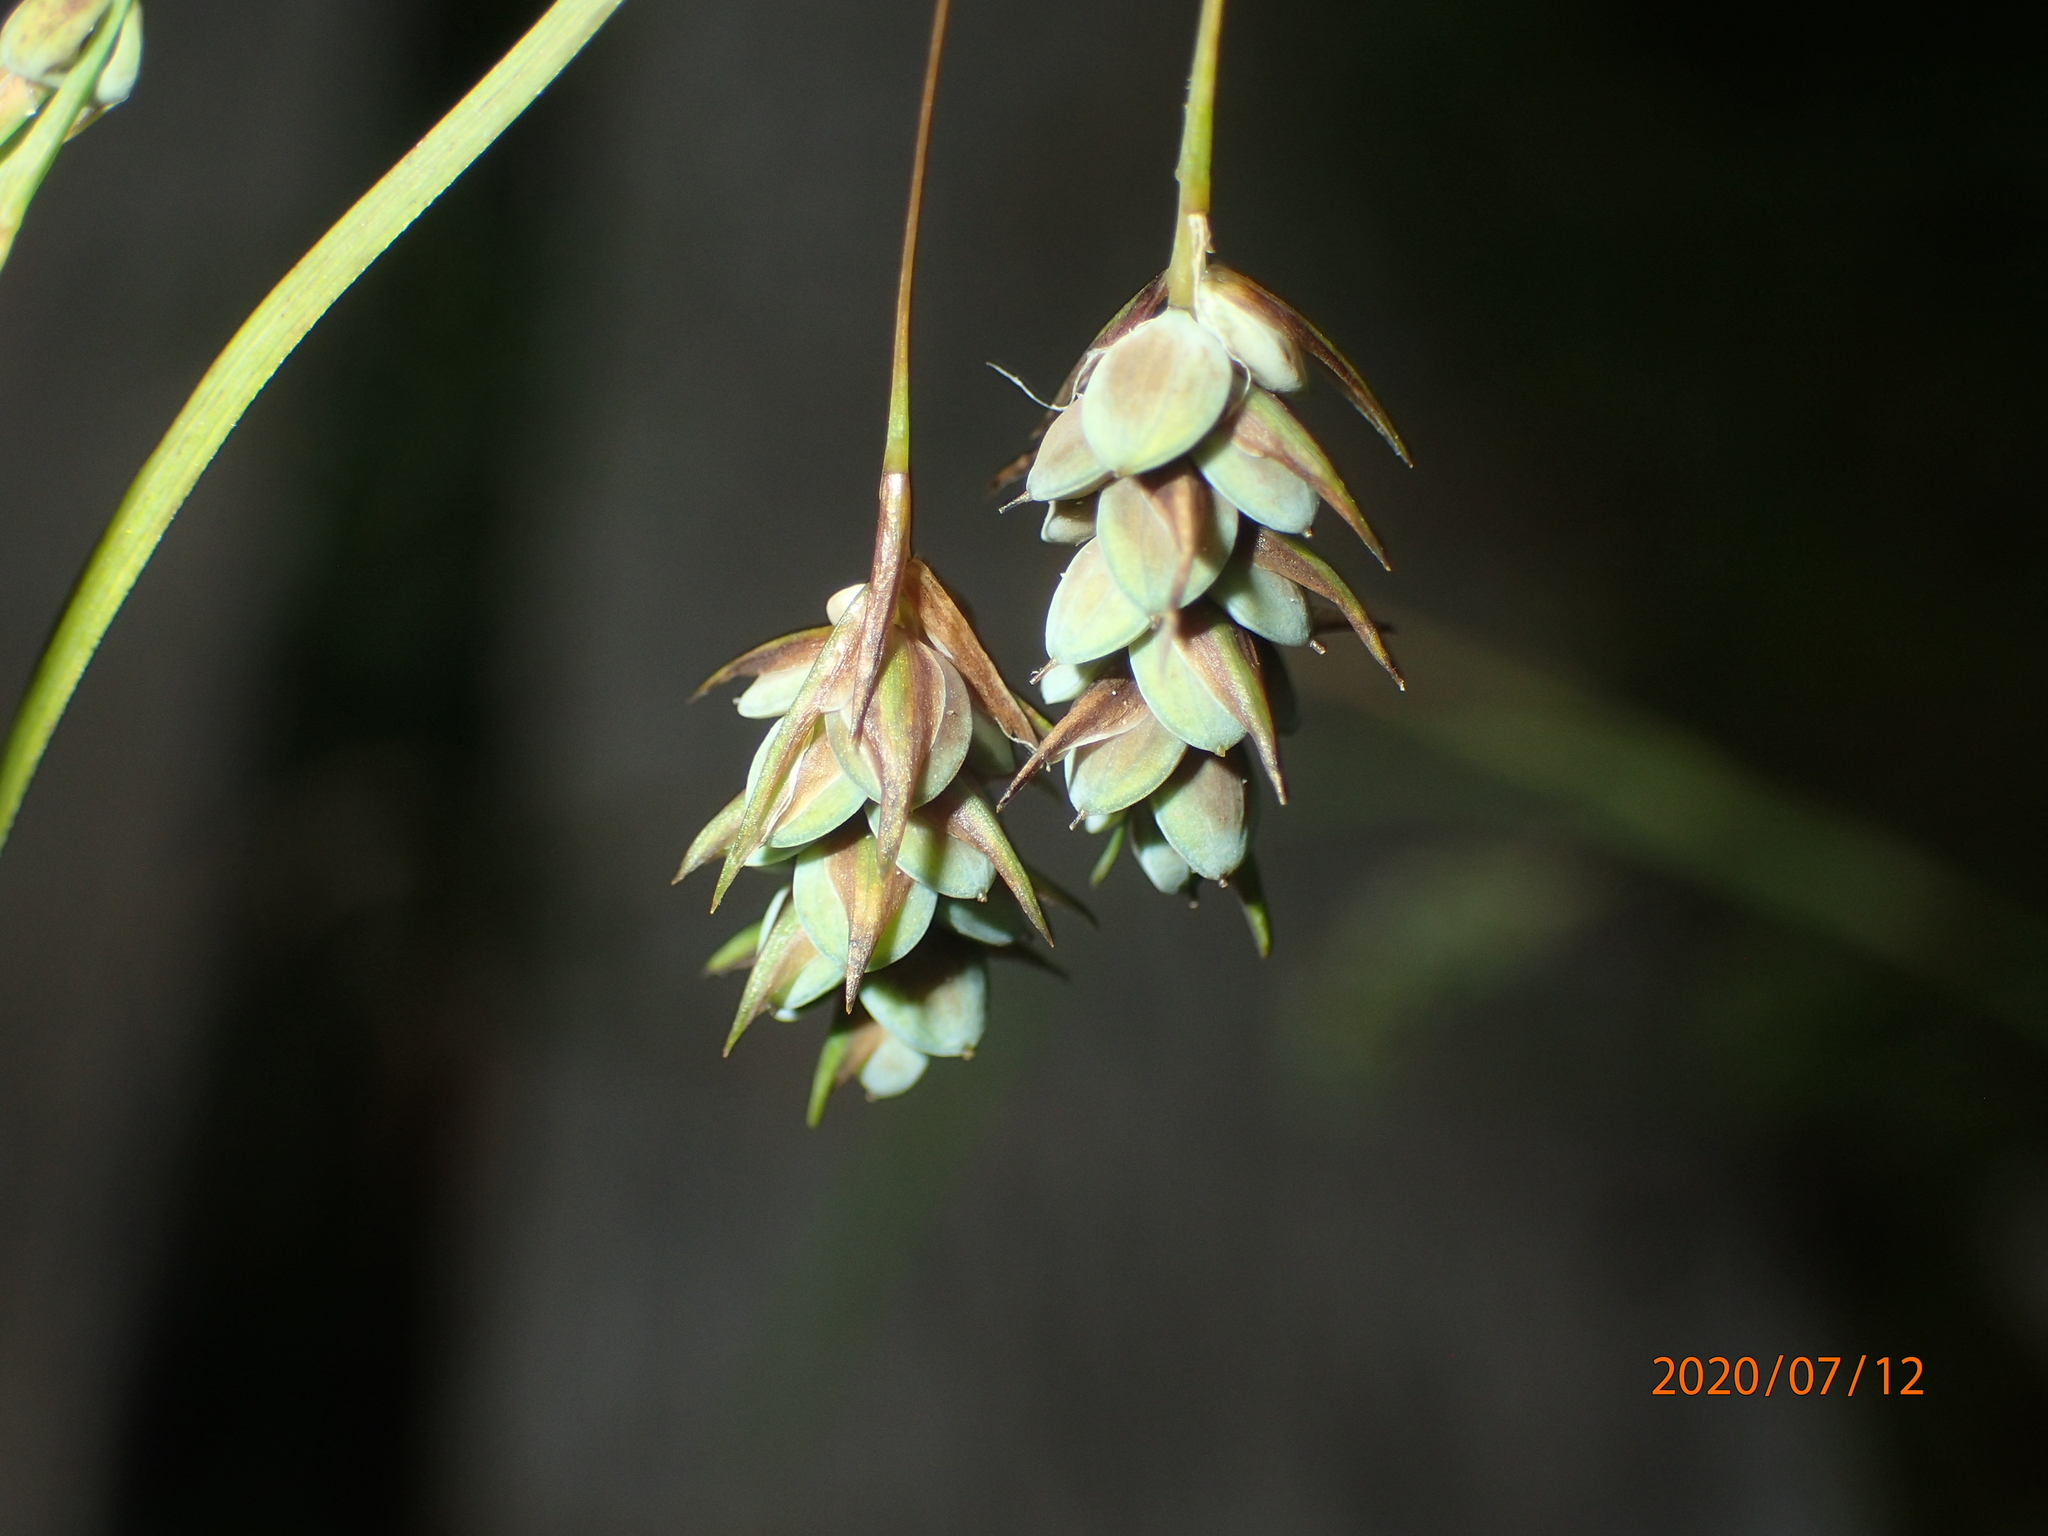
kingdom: Plantae
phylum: Tracheophyta
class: Liliopsida
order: Poales
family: Cyperaceae
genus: Carex
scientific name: Carex magellanica
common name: Bog sedge
